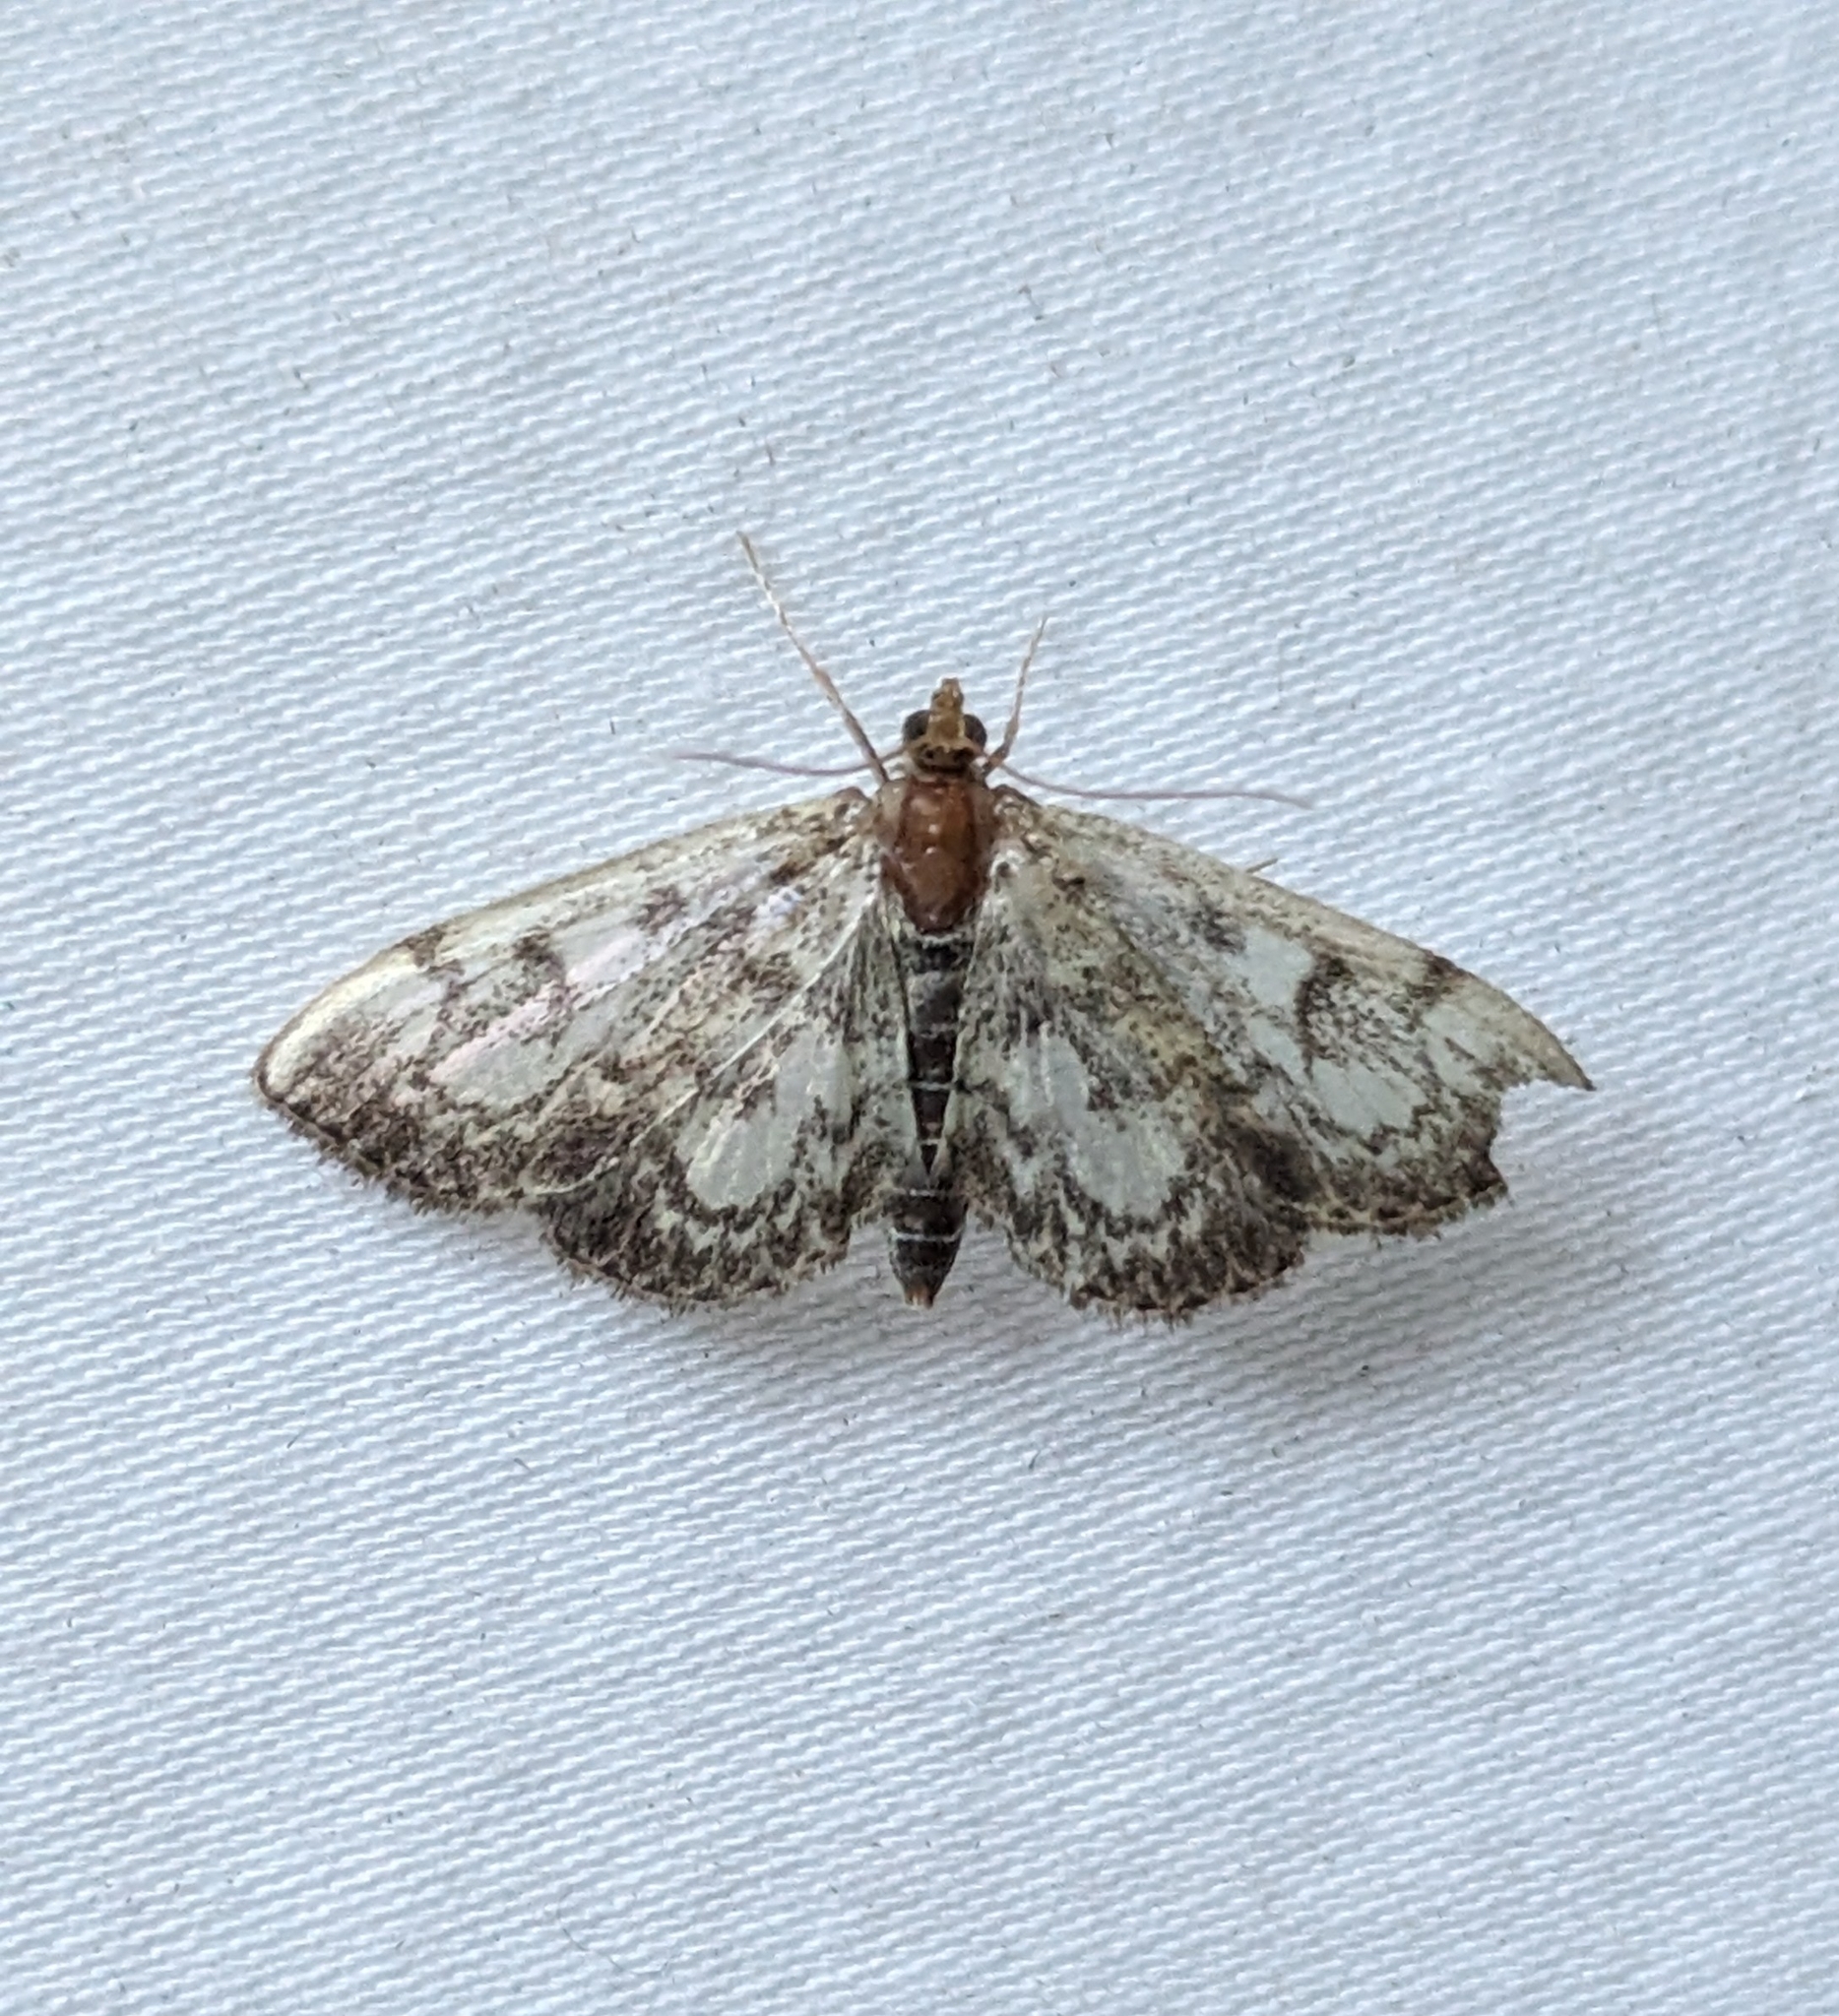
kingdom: Animalia
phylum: Arthropoda
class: Insecta
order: Lepidoptera
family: Crambidae
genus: Anania
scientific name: Anania tertialis
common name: Crowned phylctaenia moth
